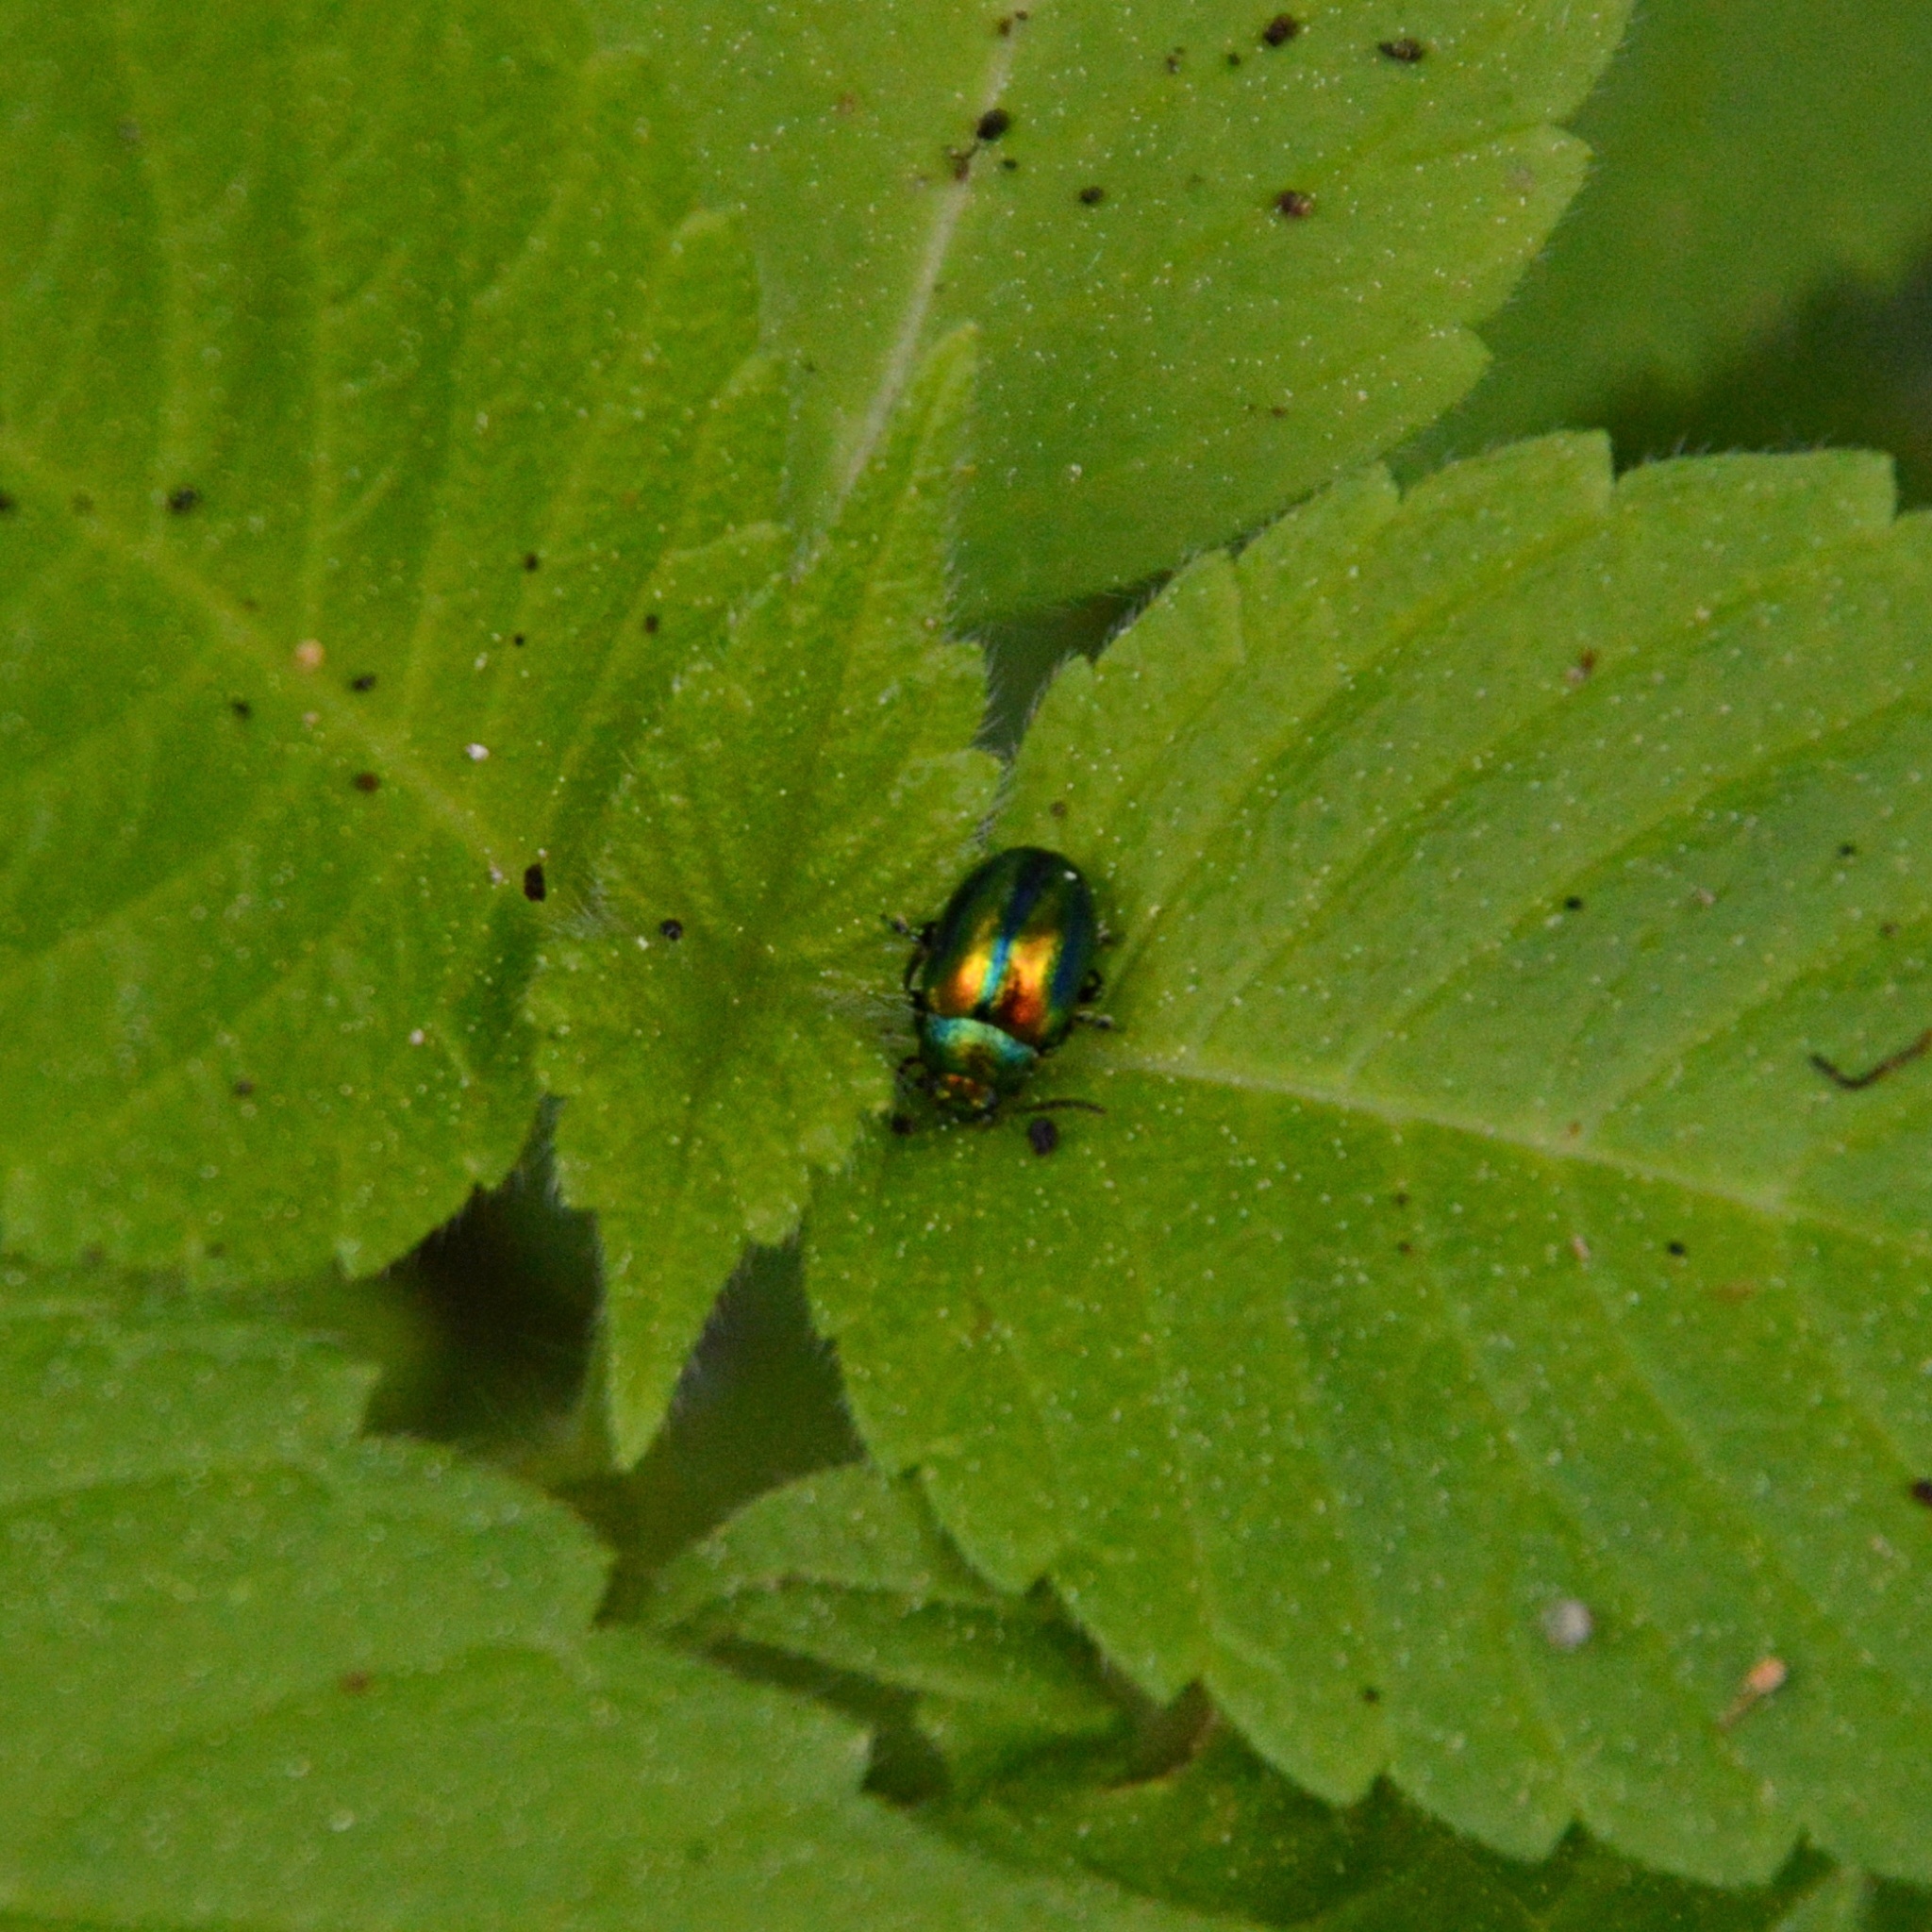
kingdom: Animalia
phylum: Arthropoda
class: Insecta
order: Coleoptera
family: Chrysomelidae
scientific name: Chrysomelidae
